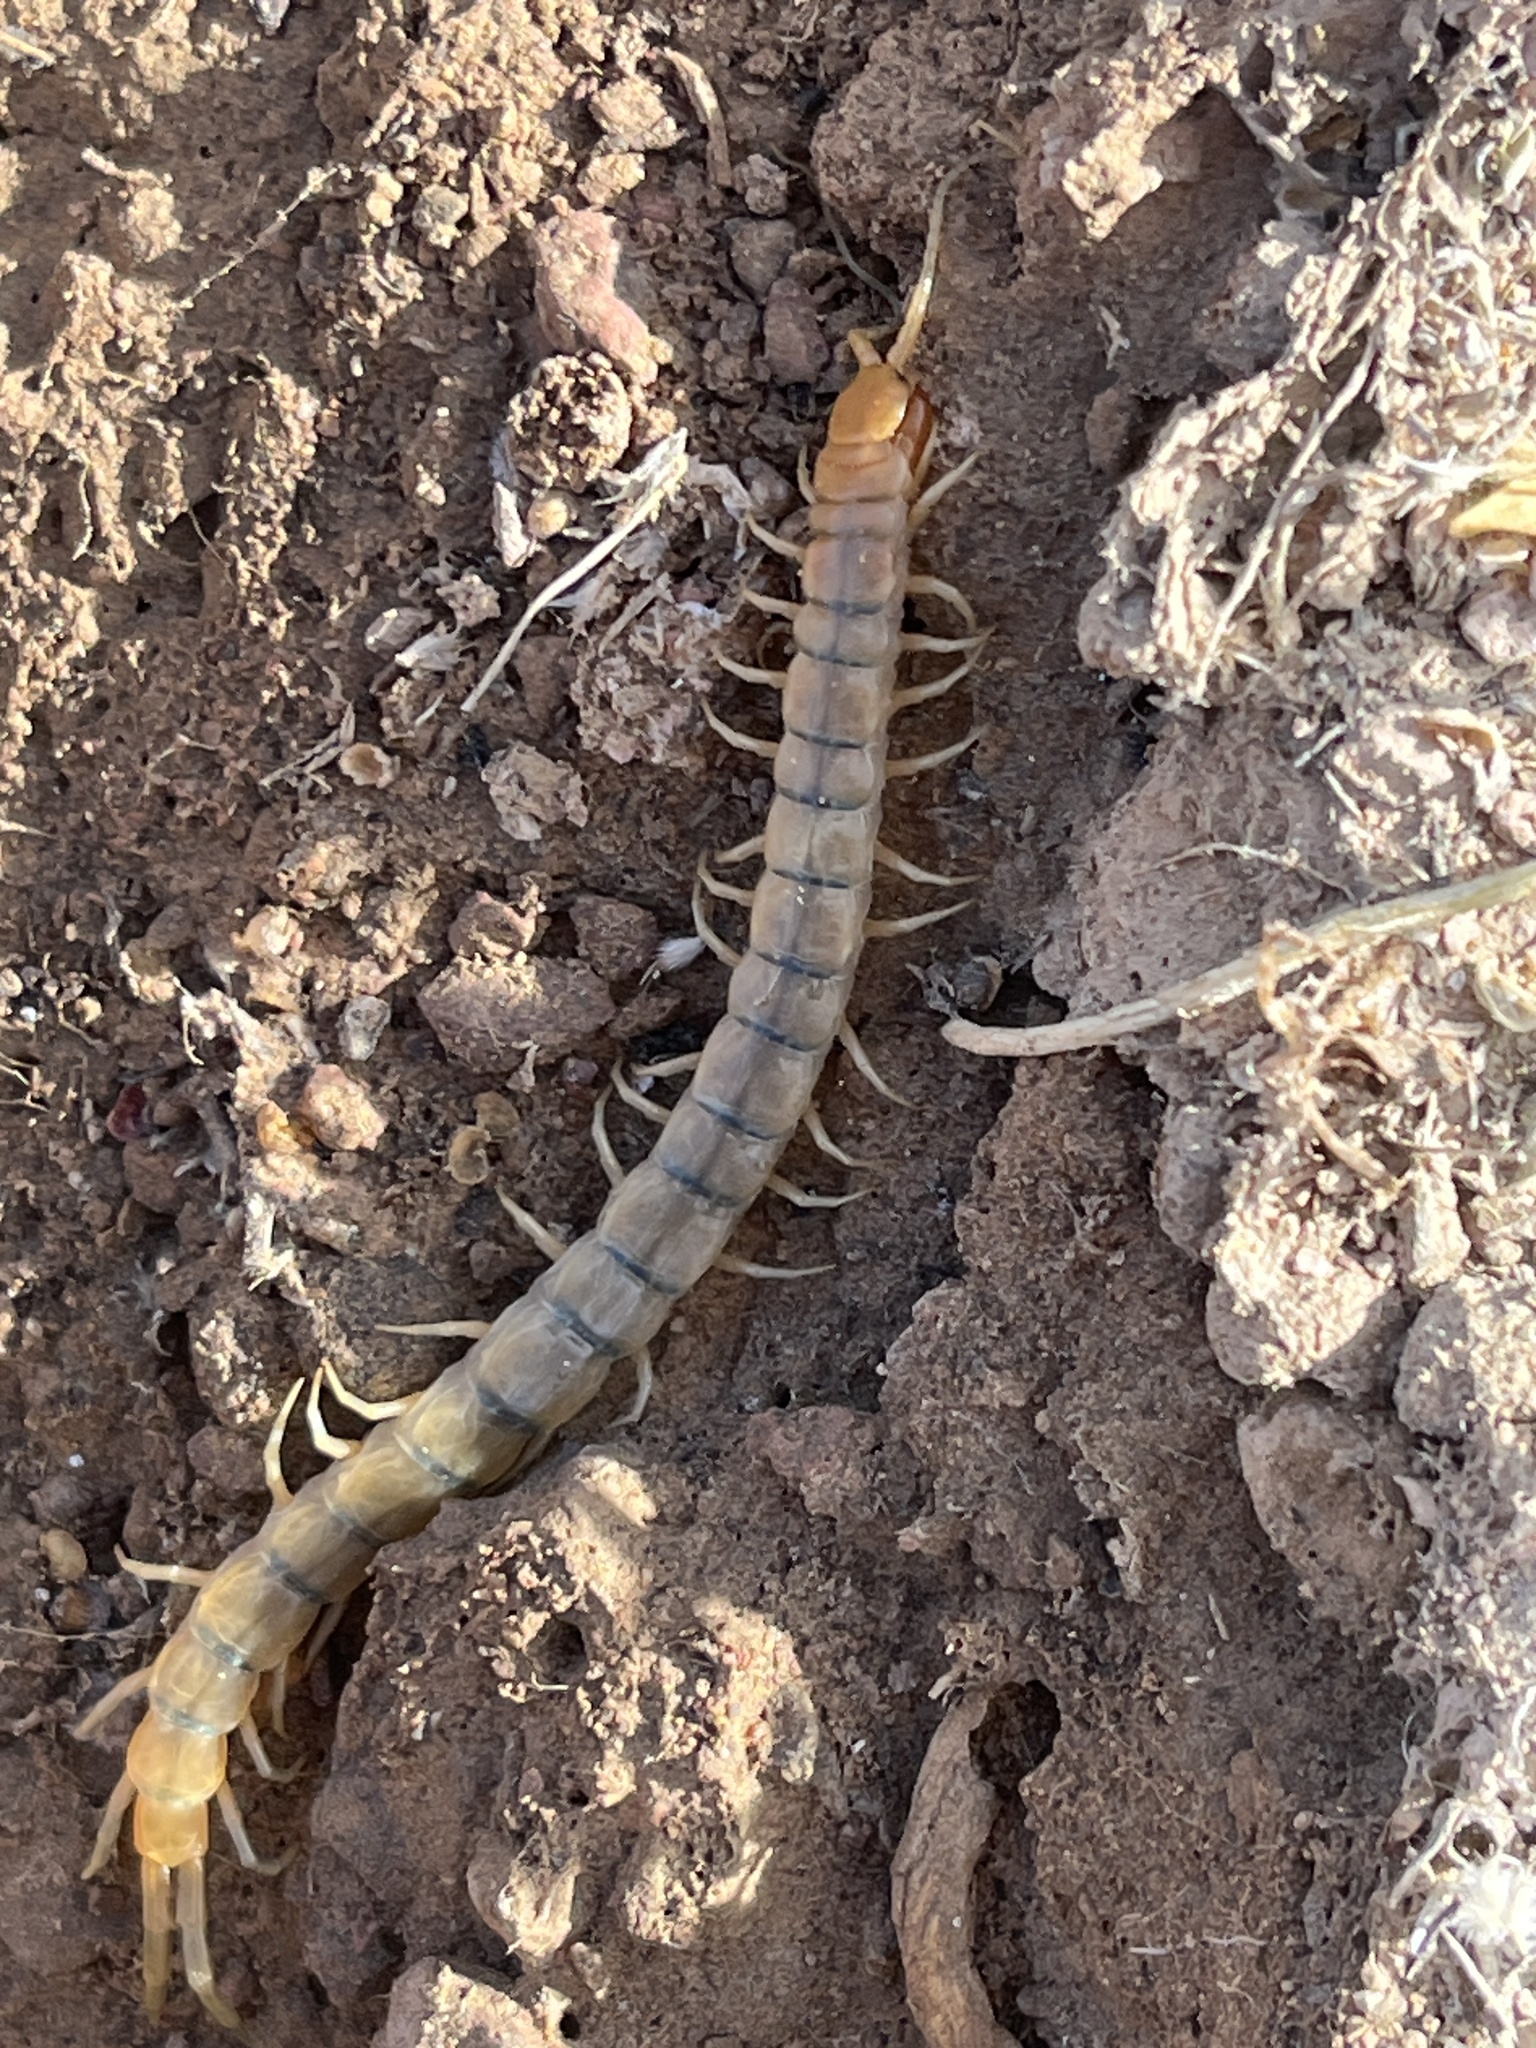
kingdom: Animalia
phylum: Arthropoda
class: Chilopoda
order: Scolopendromorpha
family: Scolopendridae
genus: Scolopendra
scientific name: Scolopendra polymorpha
